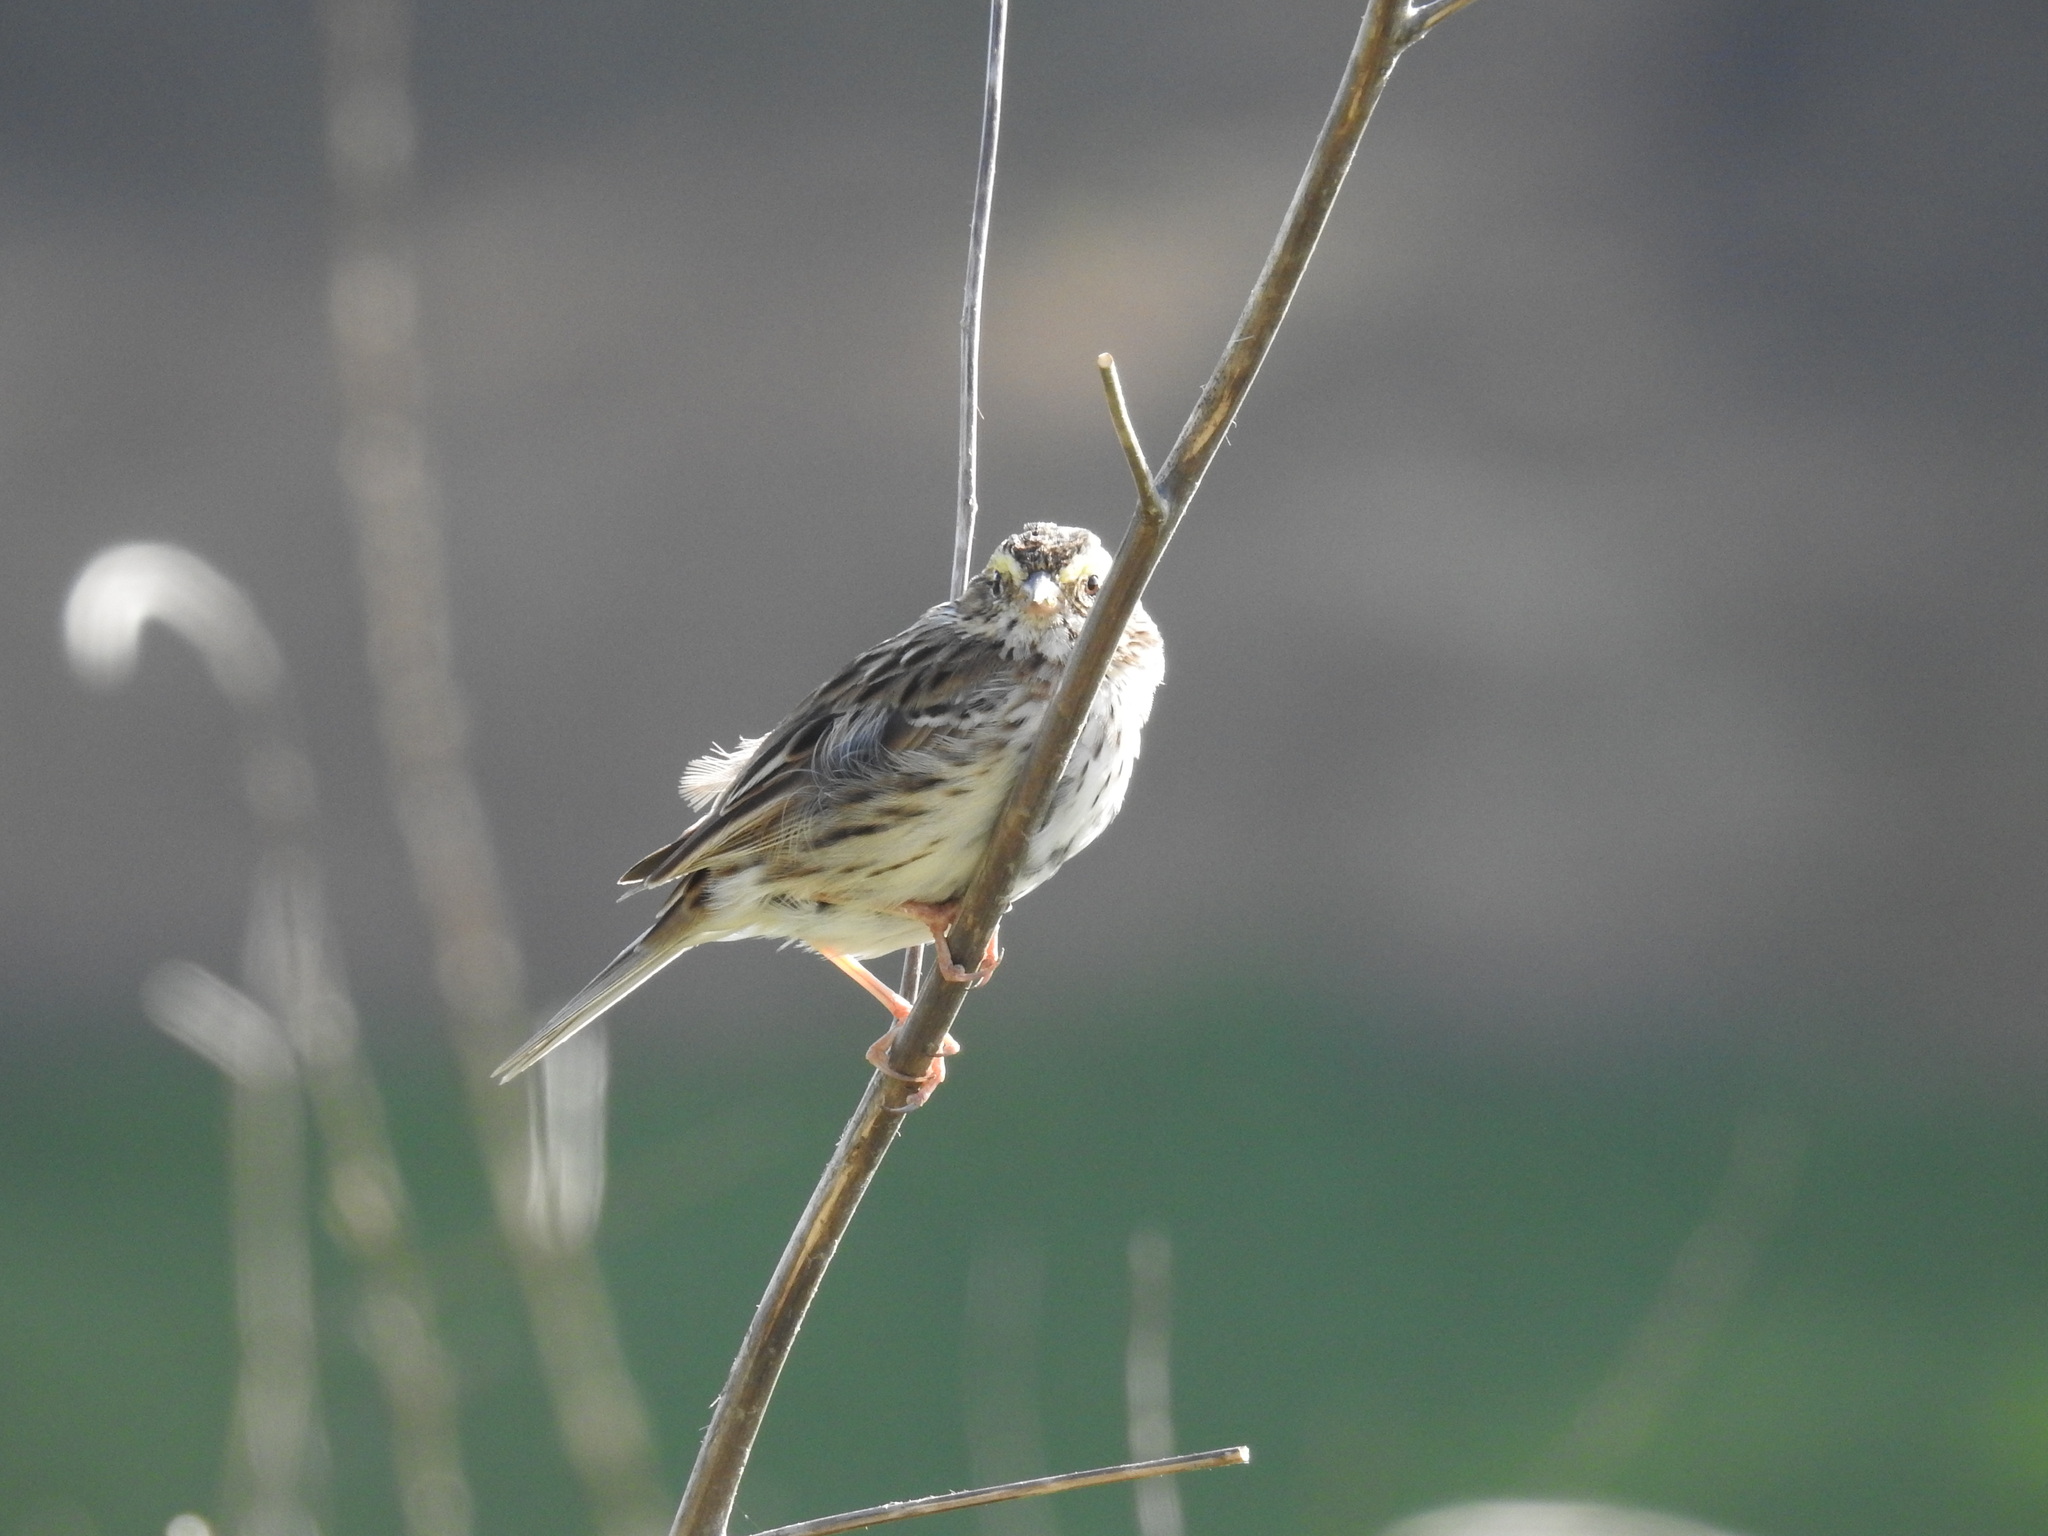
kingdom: Animalia
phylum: Chordata
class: Aves
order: Passeriformes
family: Passerellidae
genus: Passerculus
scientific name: Passerculus sandwichensis
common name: Savannah sparrow
